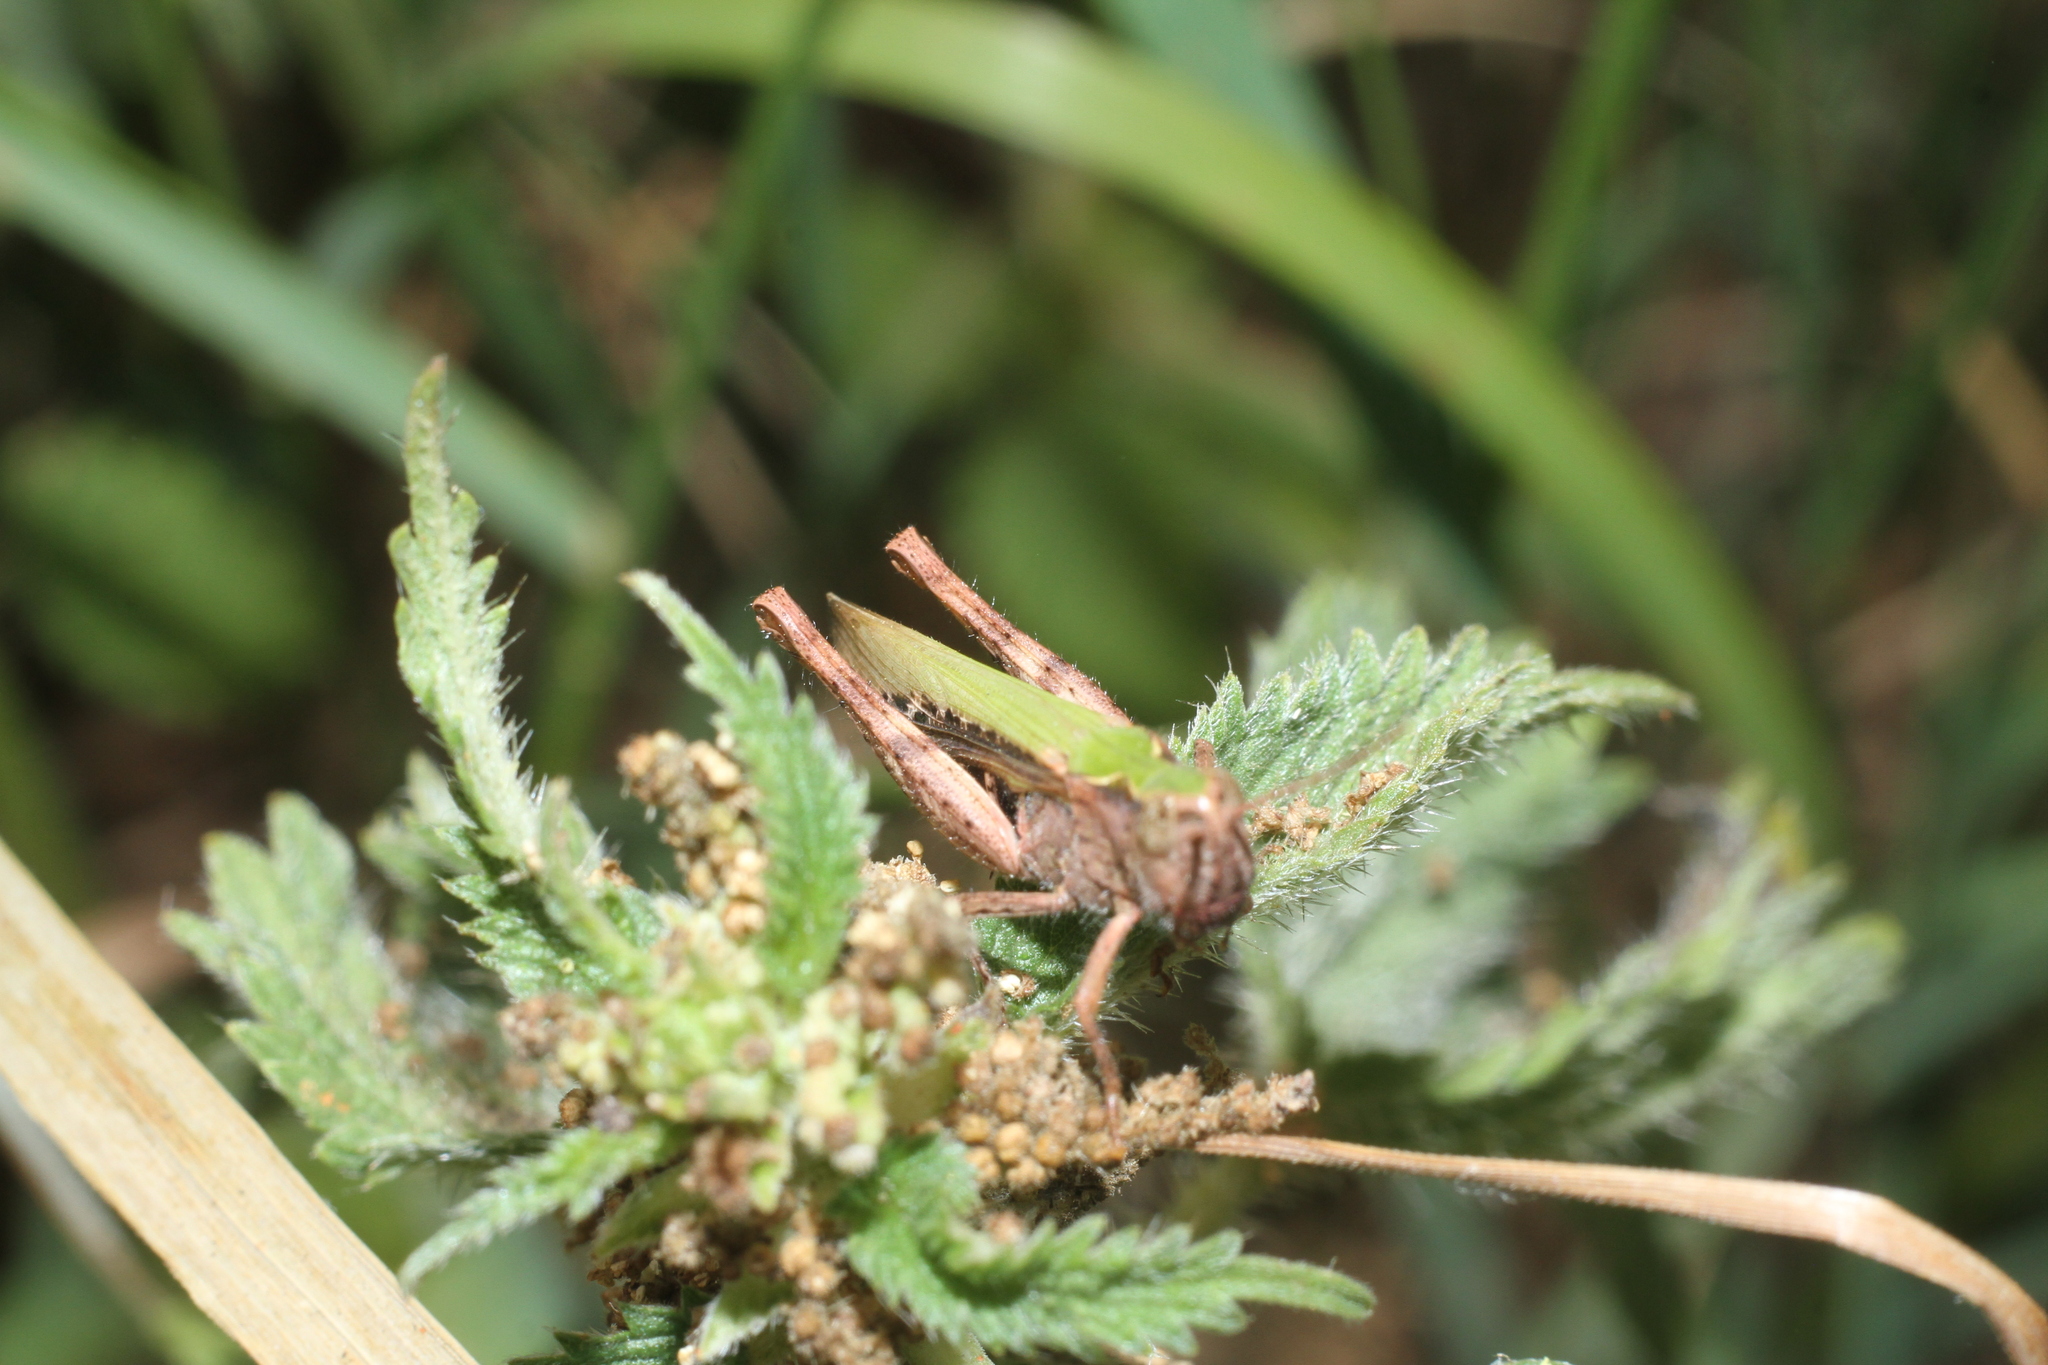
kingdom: Animalia
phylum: Arthropoda
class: Insecta
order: Orthoptera
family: Acrididae
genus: Chorthippus
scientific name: Chorthippus brunneus
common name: Field grasshopper
